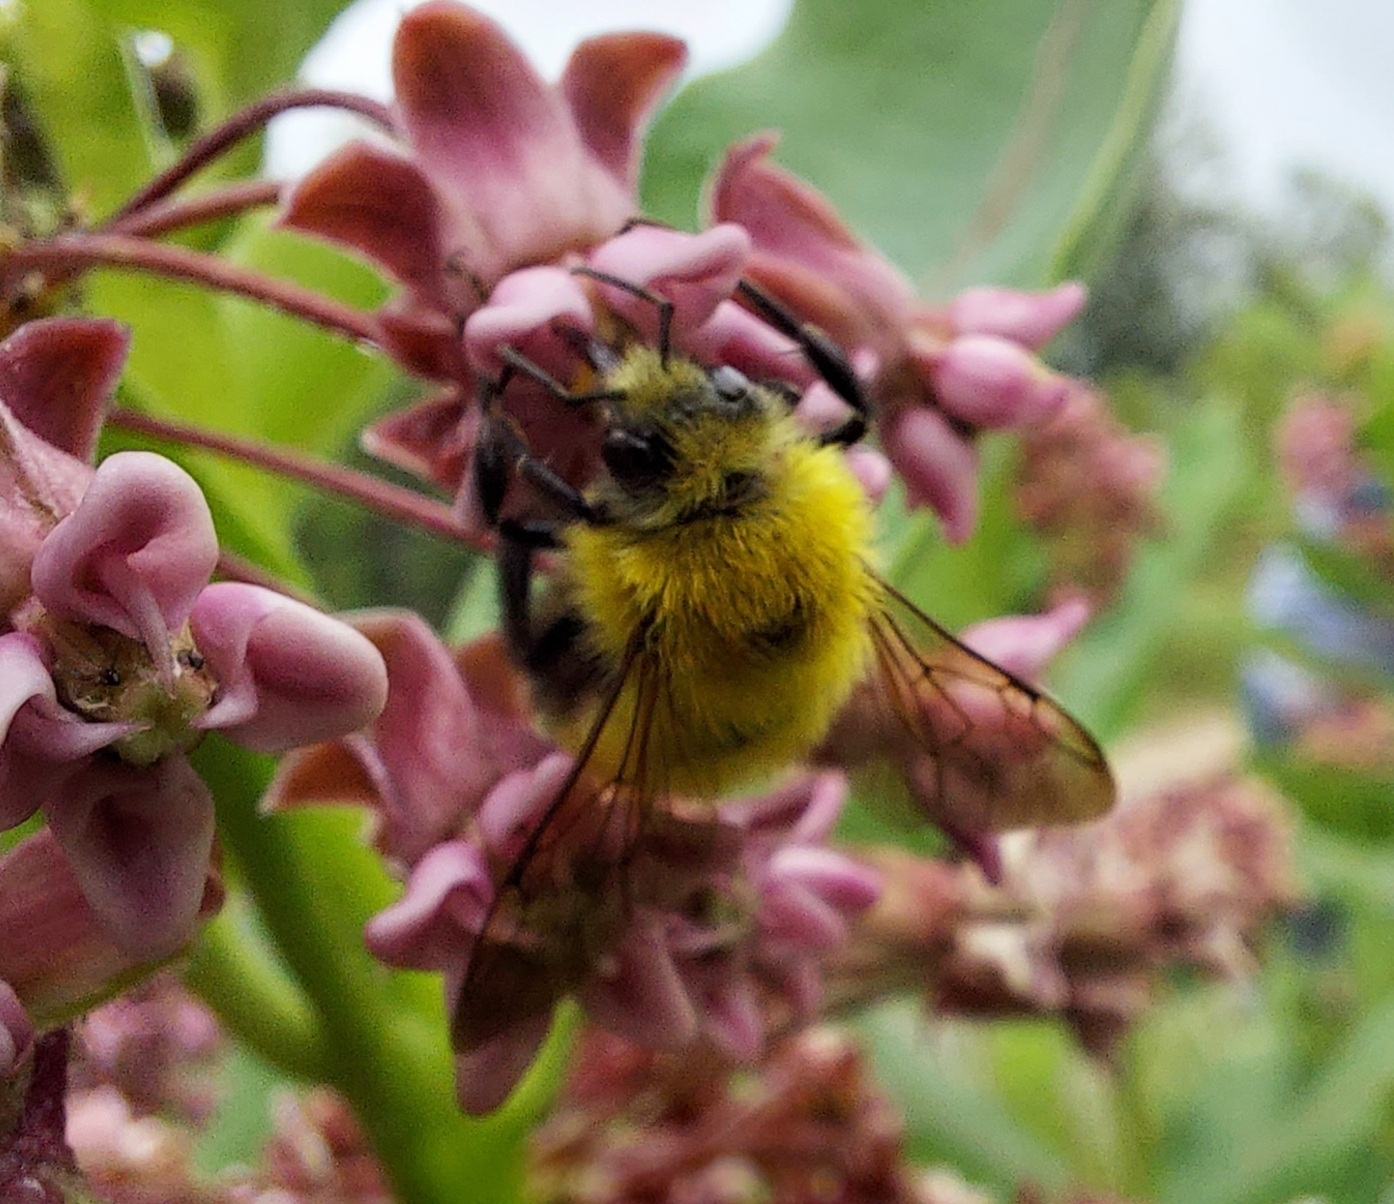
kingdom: Animalia
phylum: Arthropoda
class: Insecta
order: Hymenoptera
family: Apidae
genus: Bombus
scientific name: Bombus perplexus
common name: Confusing bumble bee
